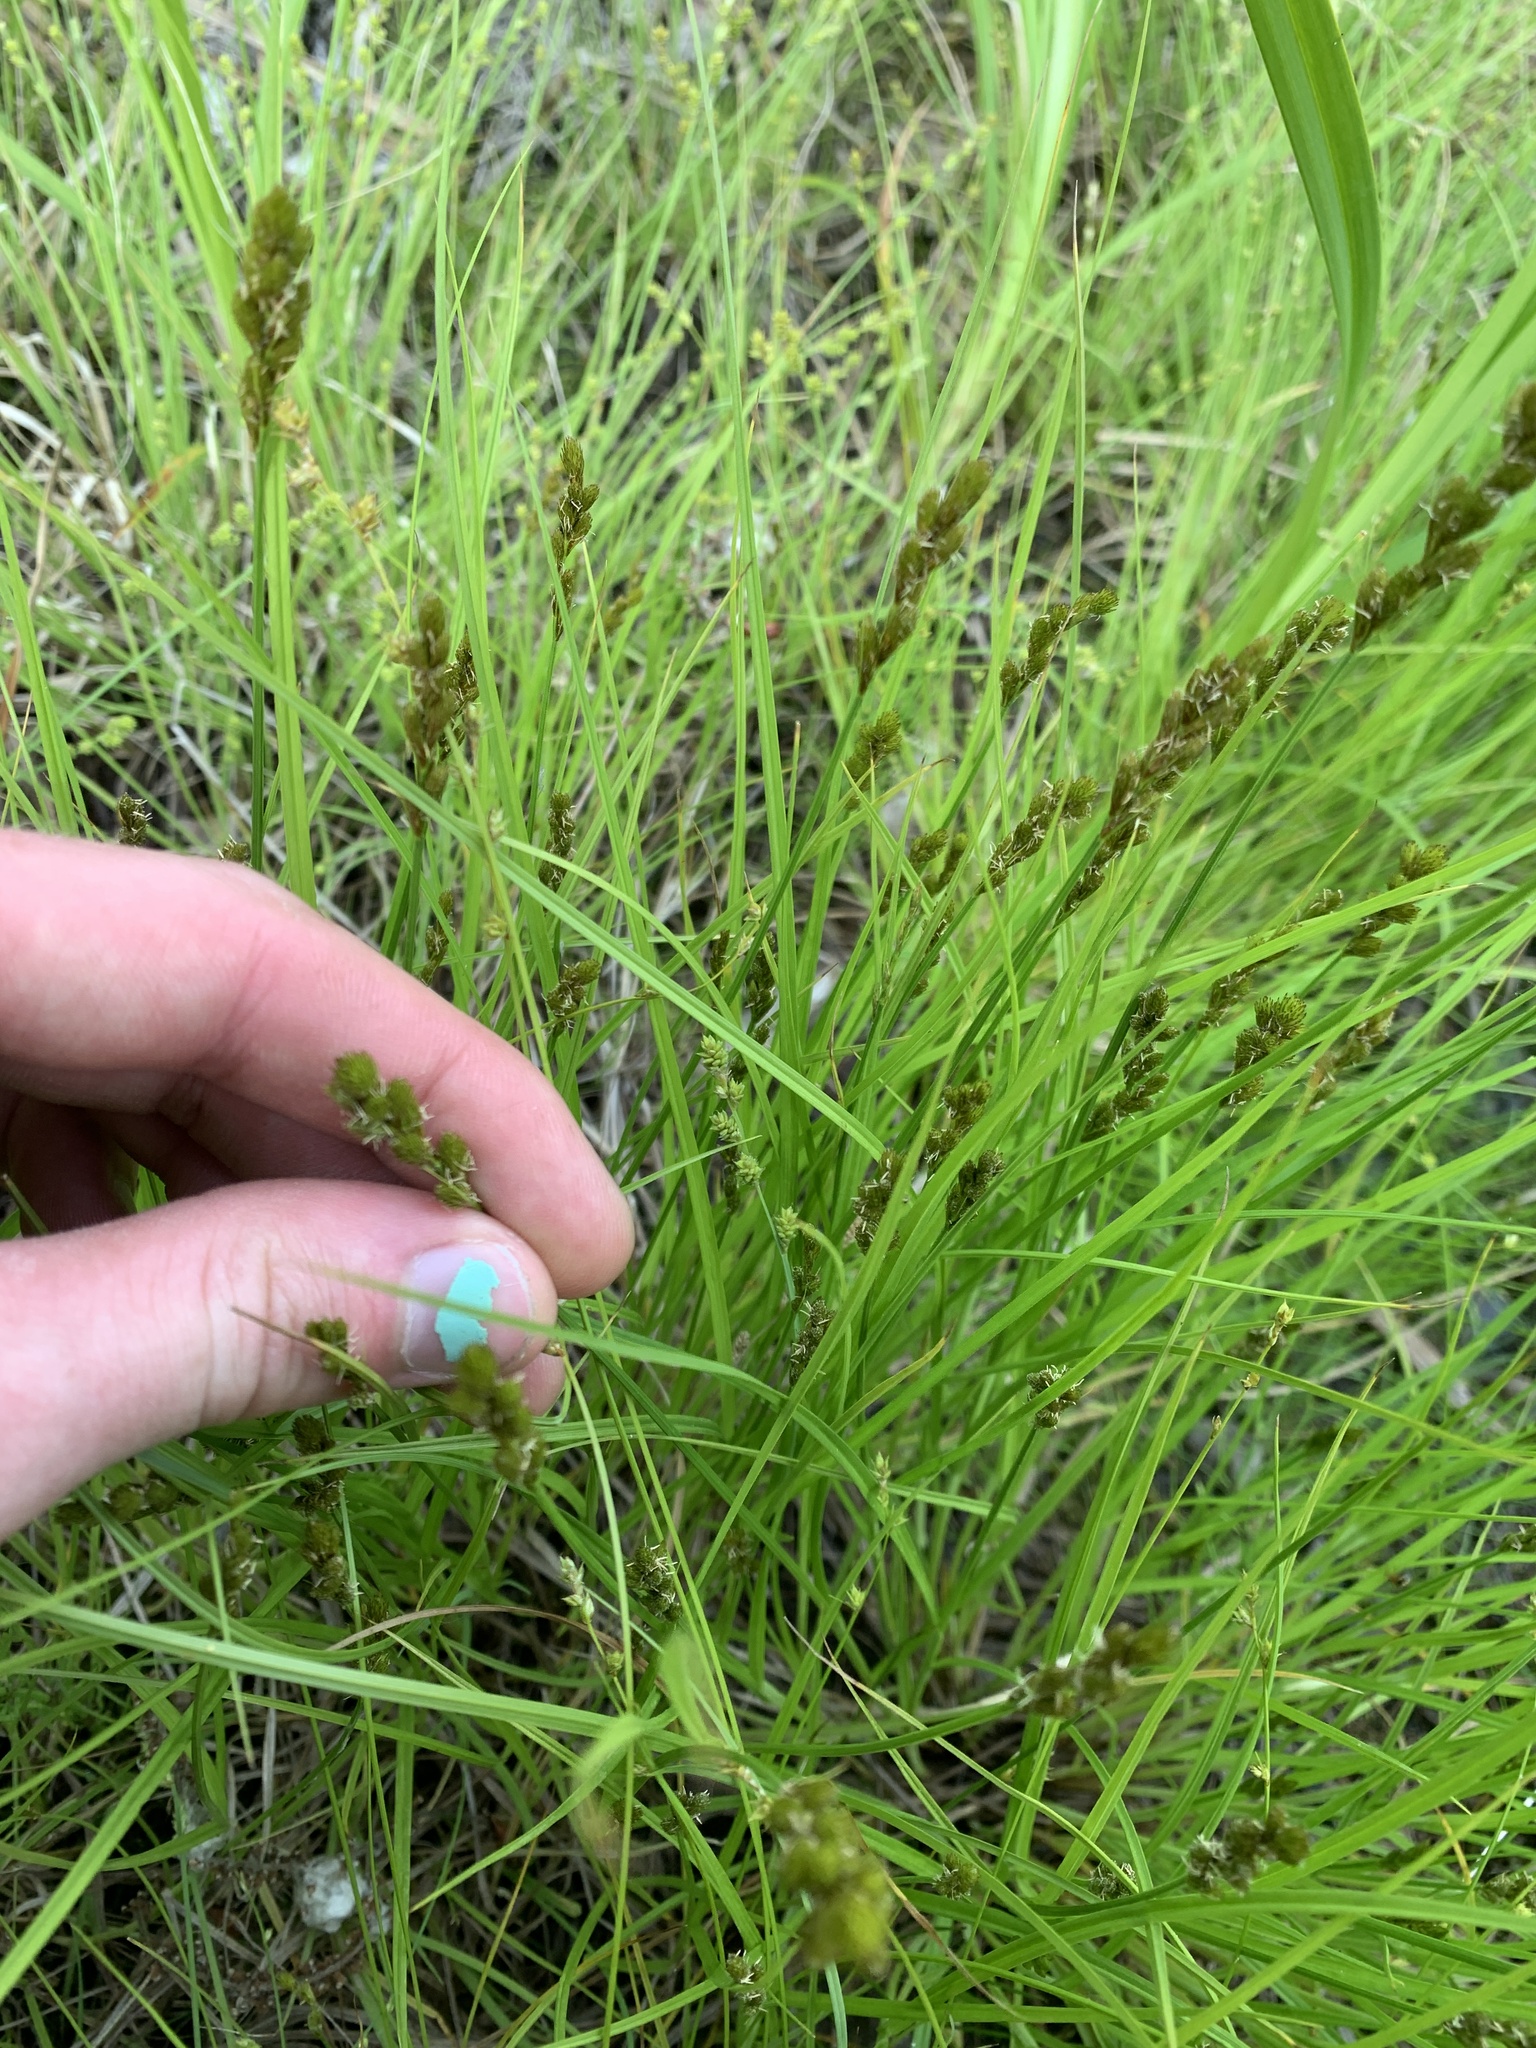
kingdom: Plantae
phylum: Tracheophyta
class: Liliopsida
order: Poales
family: Cyperaceae
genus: Carex
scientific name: Carex crawfordii
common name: Crawford's sedge
